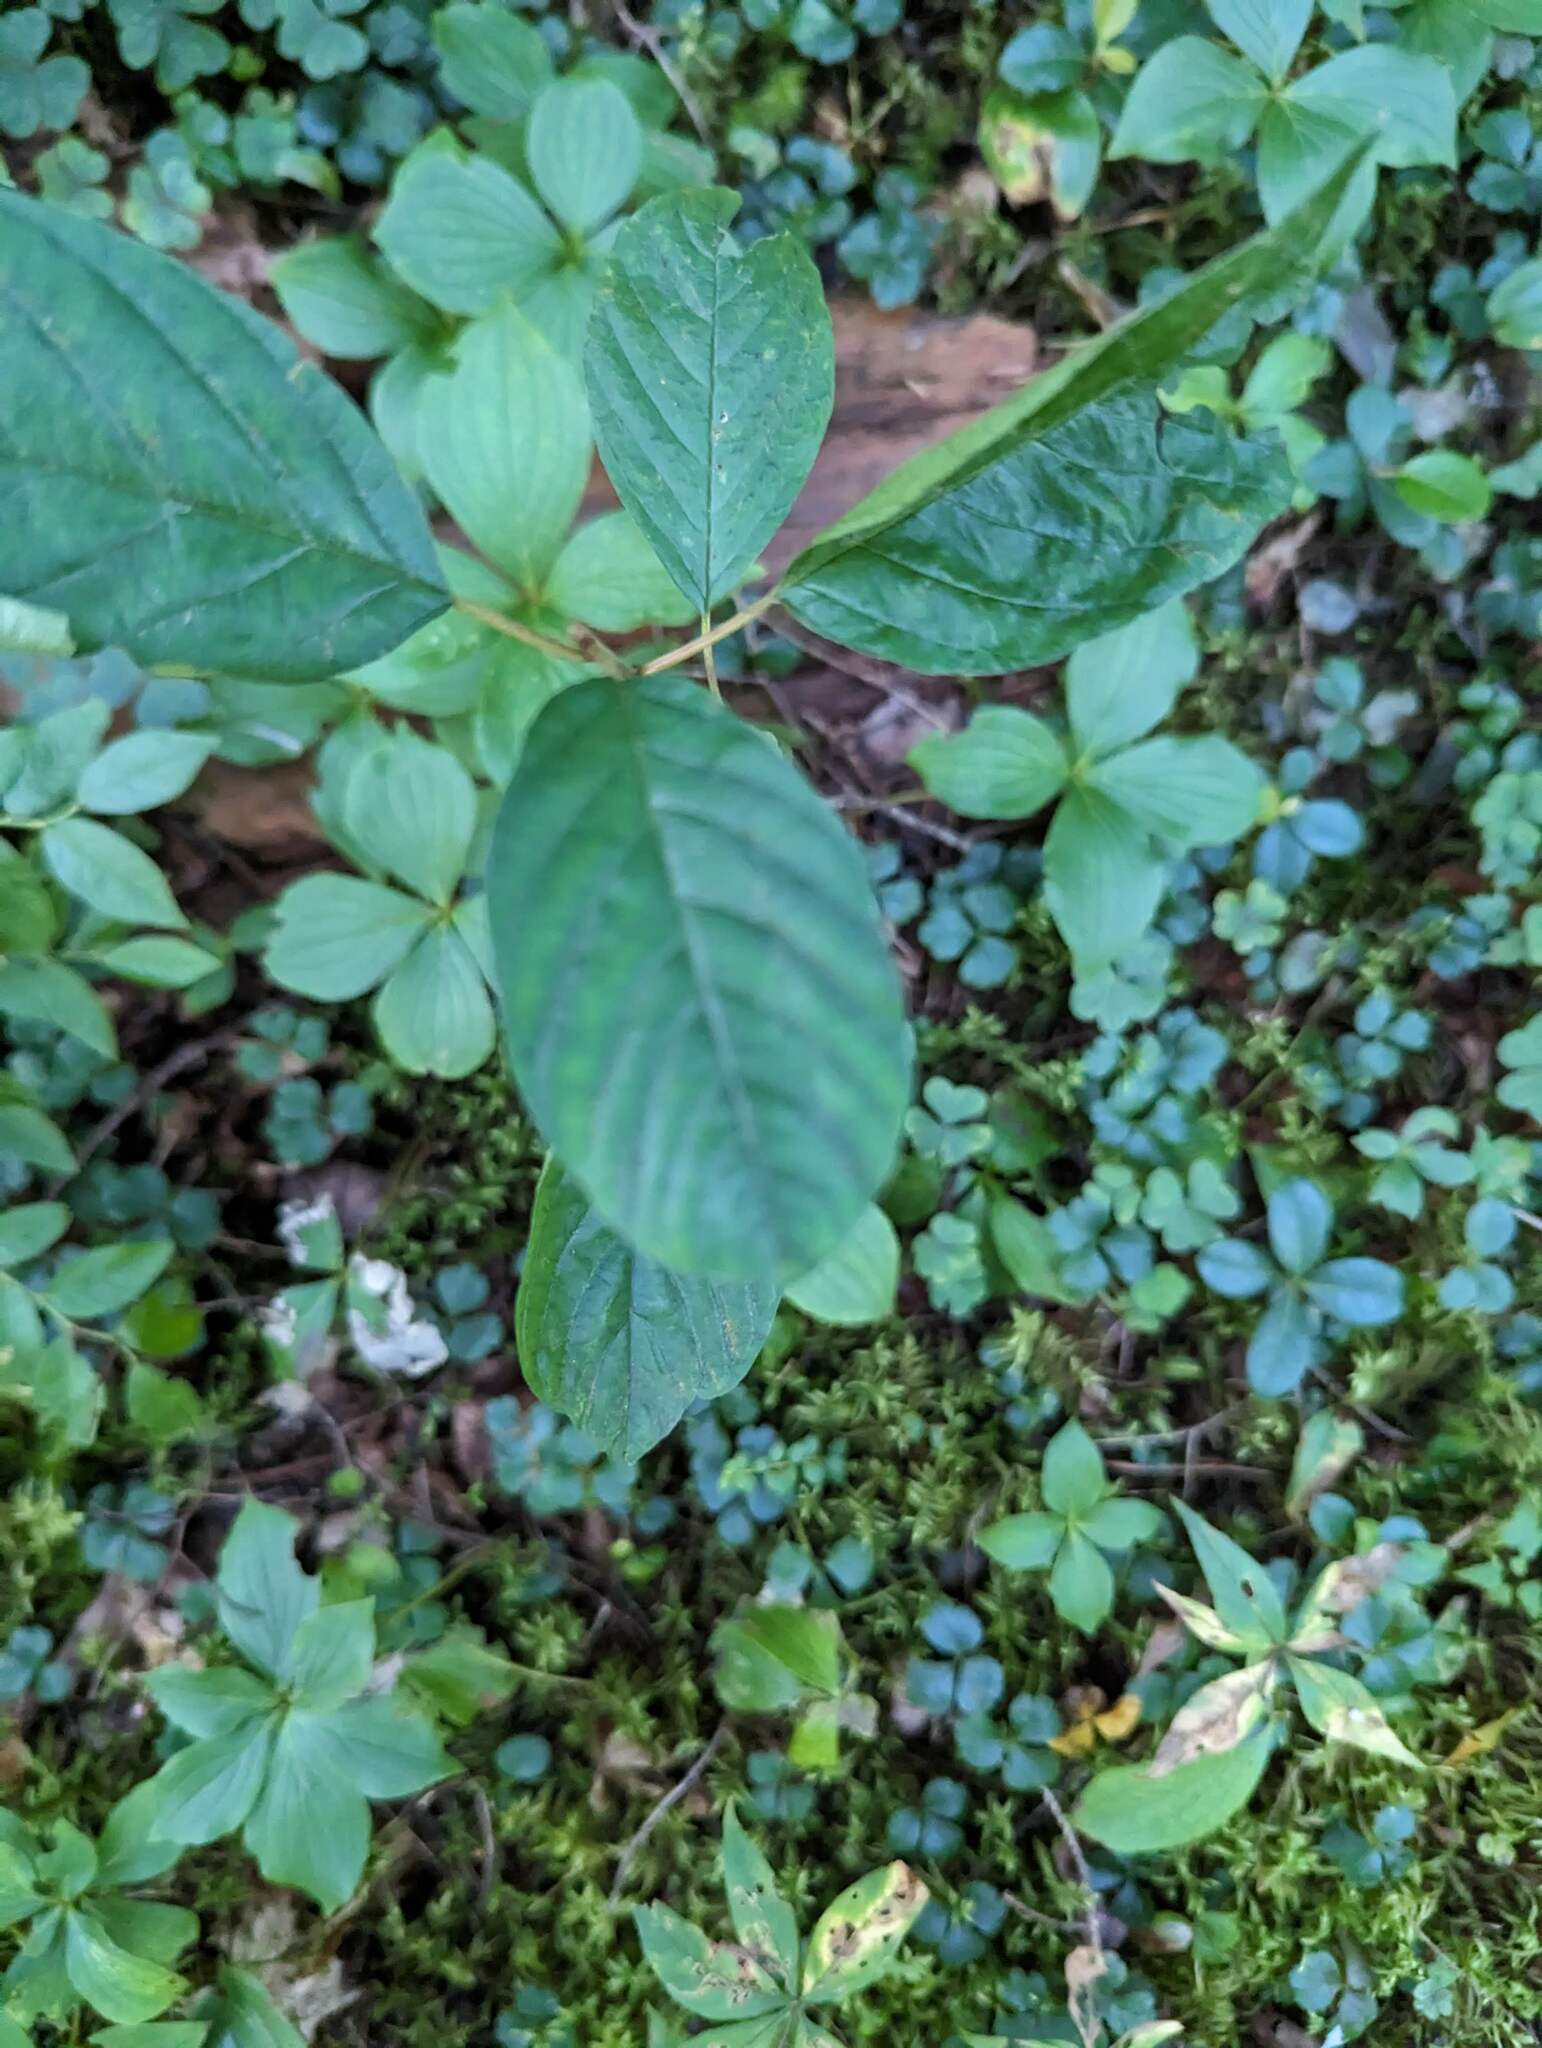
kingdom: Plantae
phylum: Tracheophyta
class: Magnoliopsida
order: Rosales
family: Rhamnaceae
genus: Frangula
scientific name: Frangula alnus
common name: Alder buckthorn
